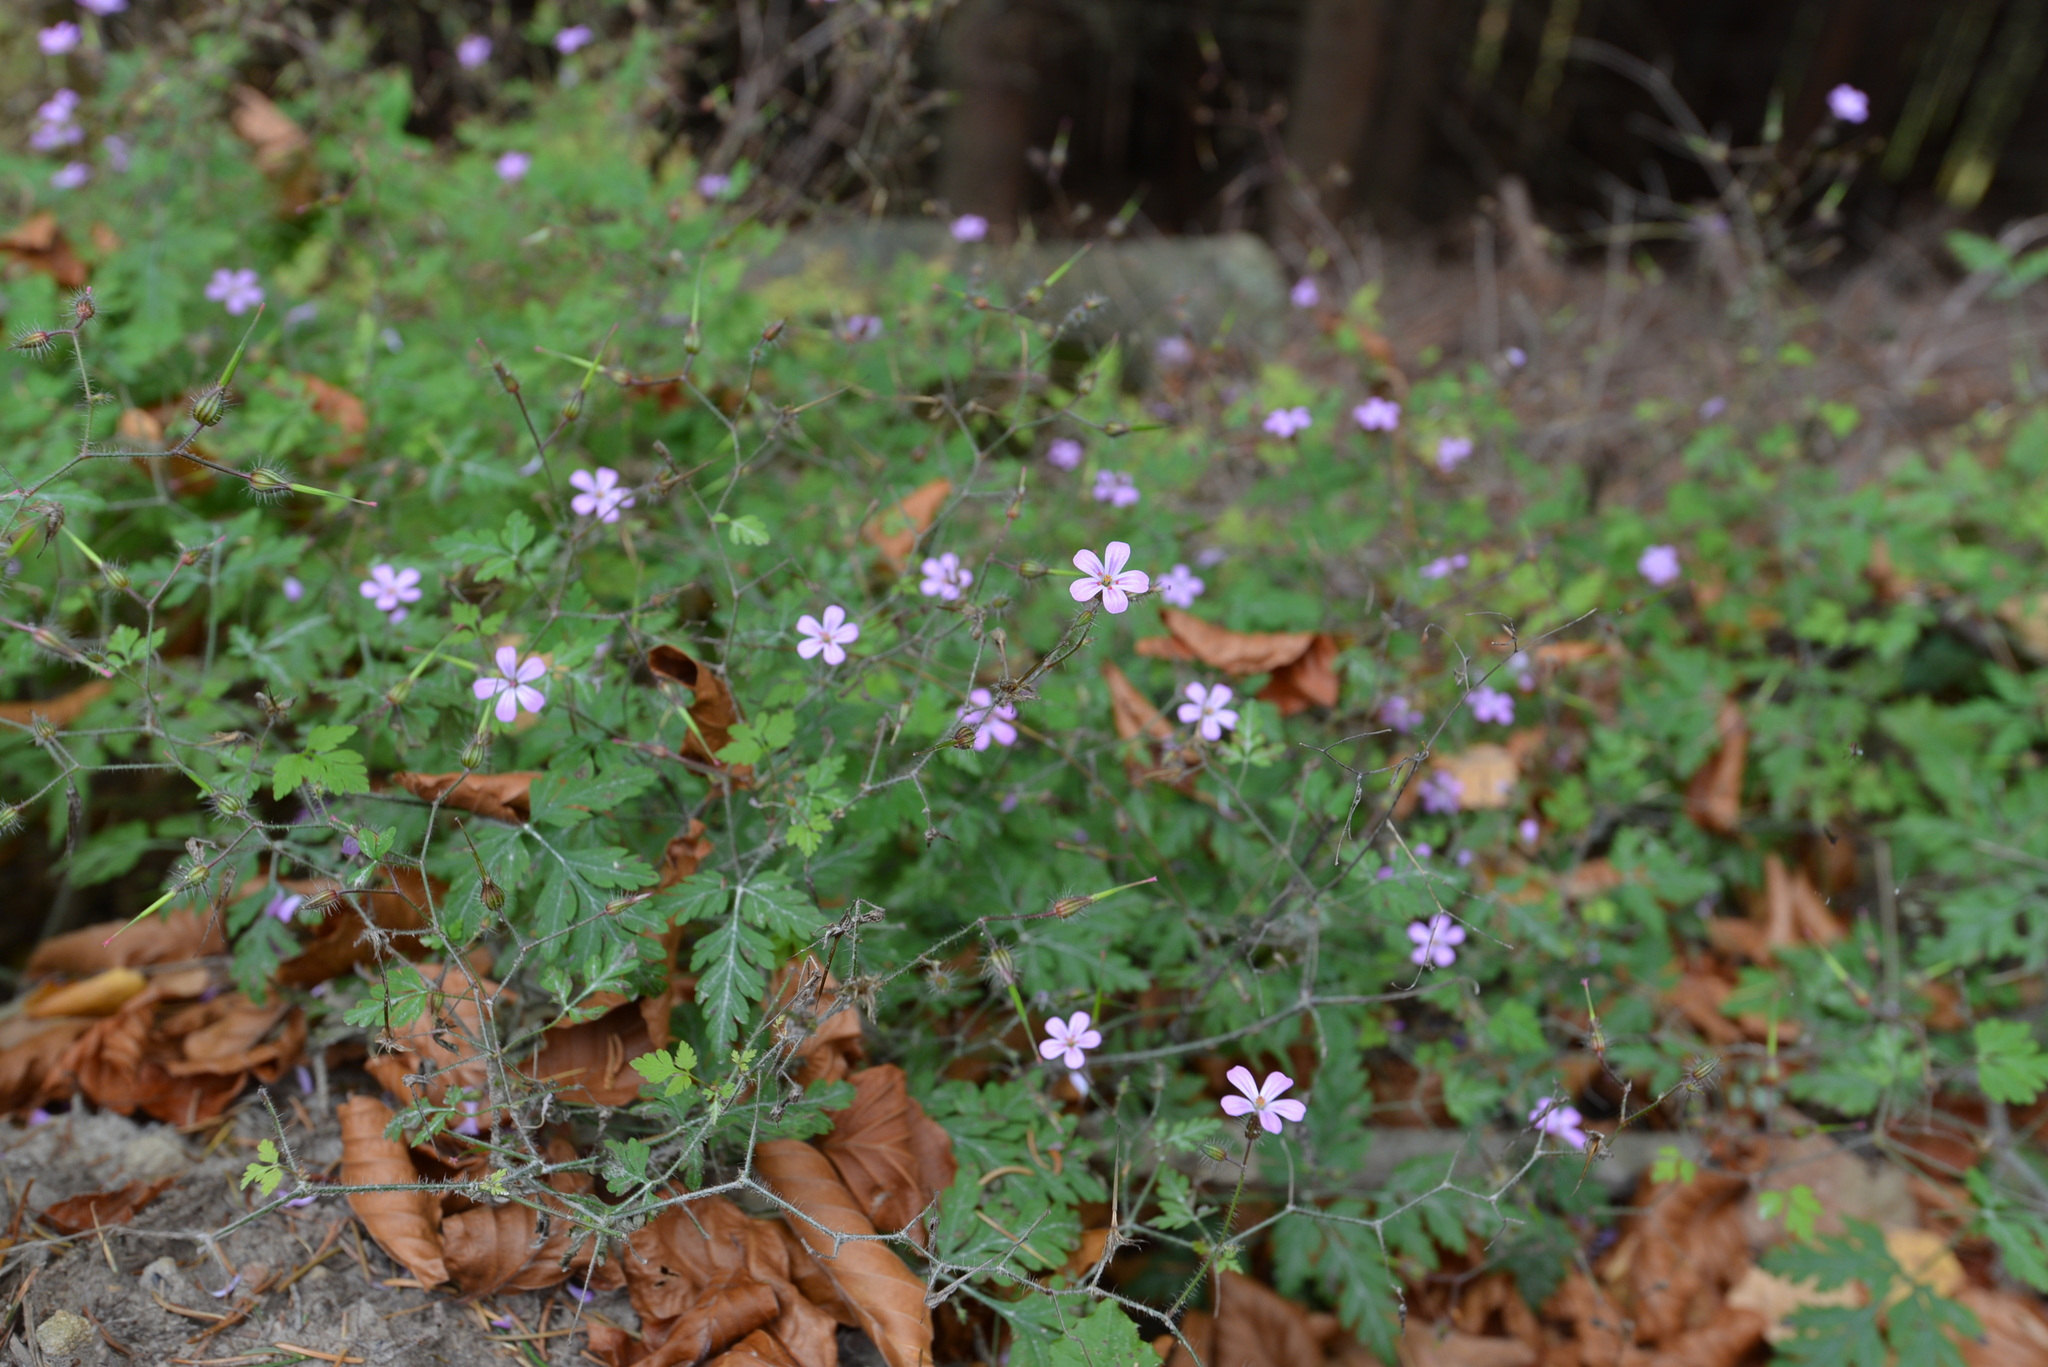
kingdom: Plantae
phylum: Tracheophyta
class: Magnoliopsida
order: Geraniales
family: Geraniaceae
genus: Geranium
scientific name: Geranium robertianum
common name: Herb-robert
